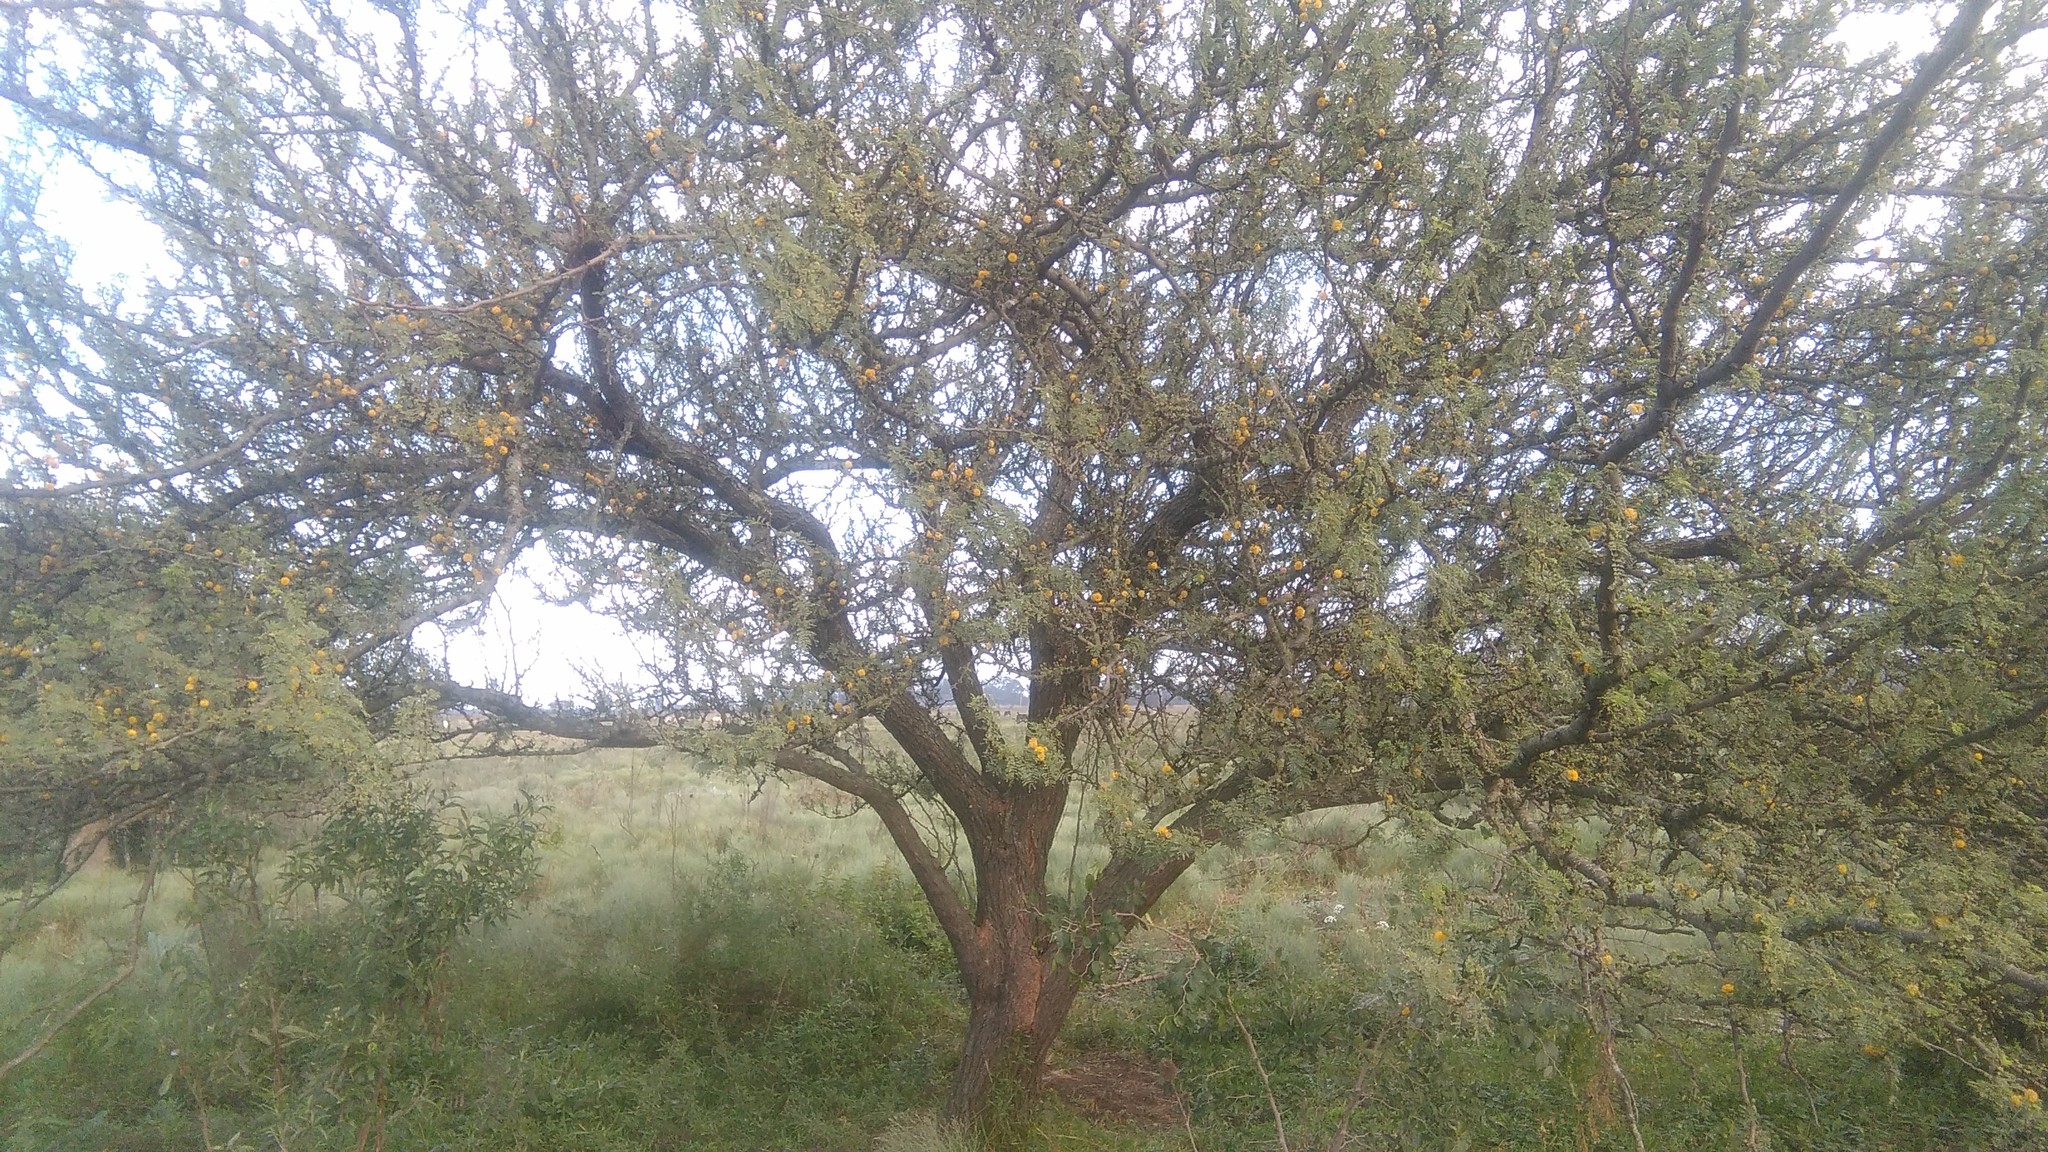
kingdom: Plantae
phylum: Tracheophyta
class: Magnoliopsida
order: Fabales
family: Fabaceae
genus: Vachellia
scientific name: Vachellia caven
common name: Roman cassie
